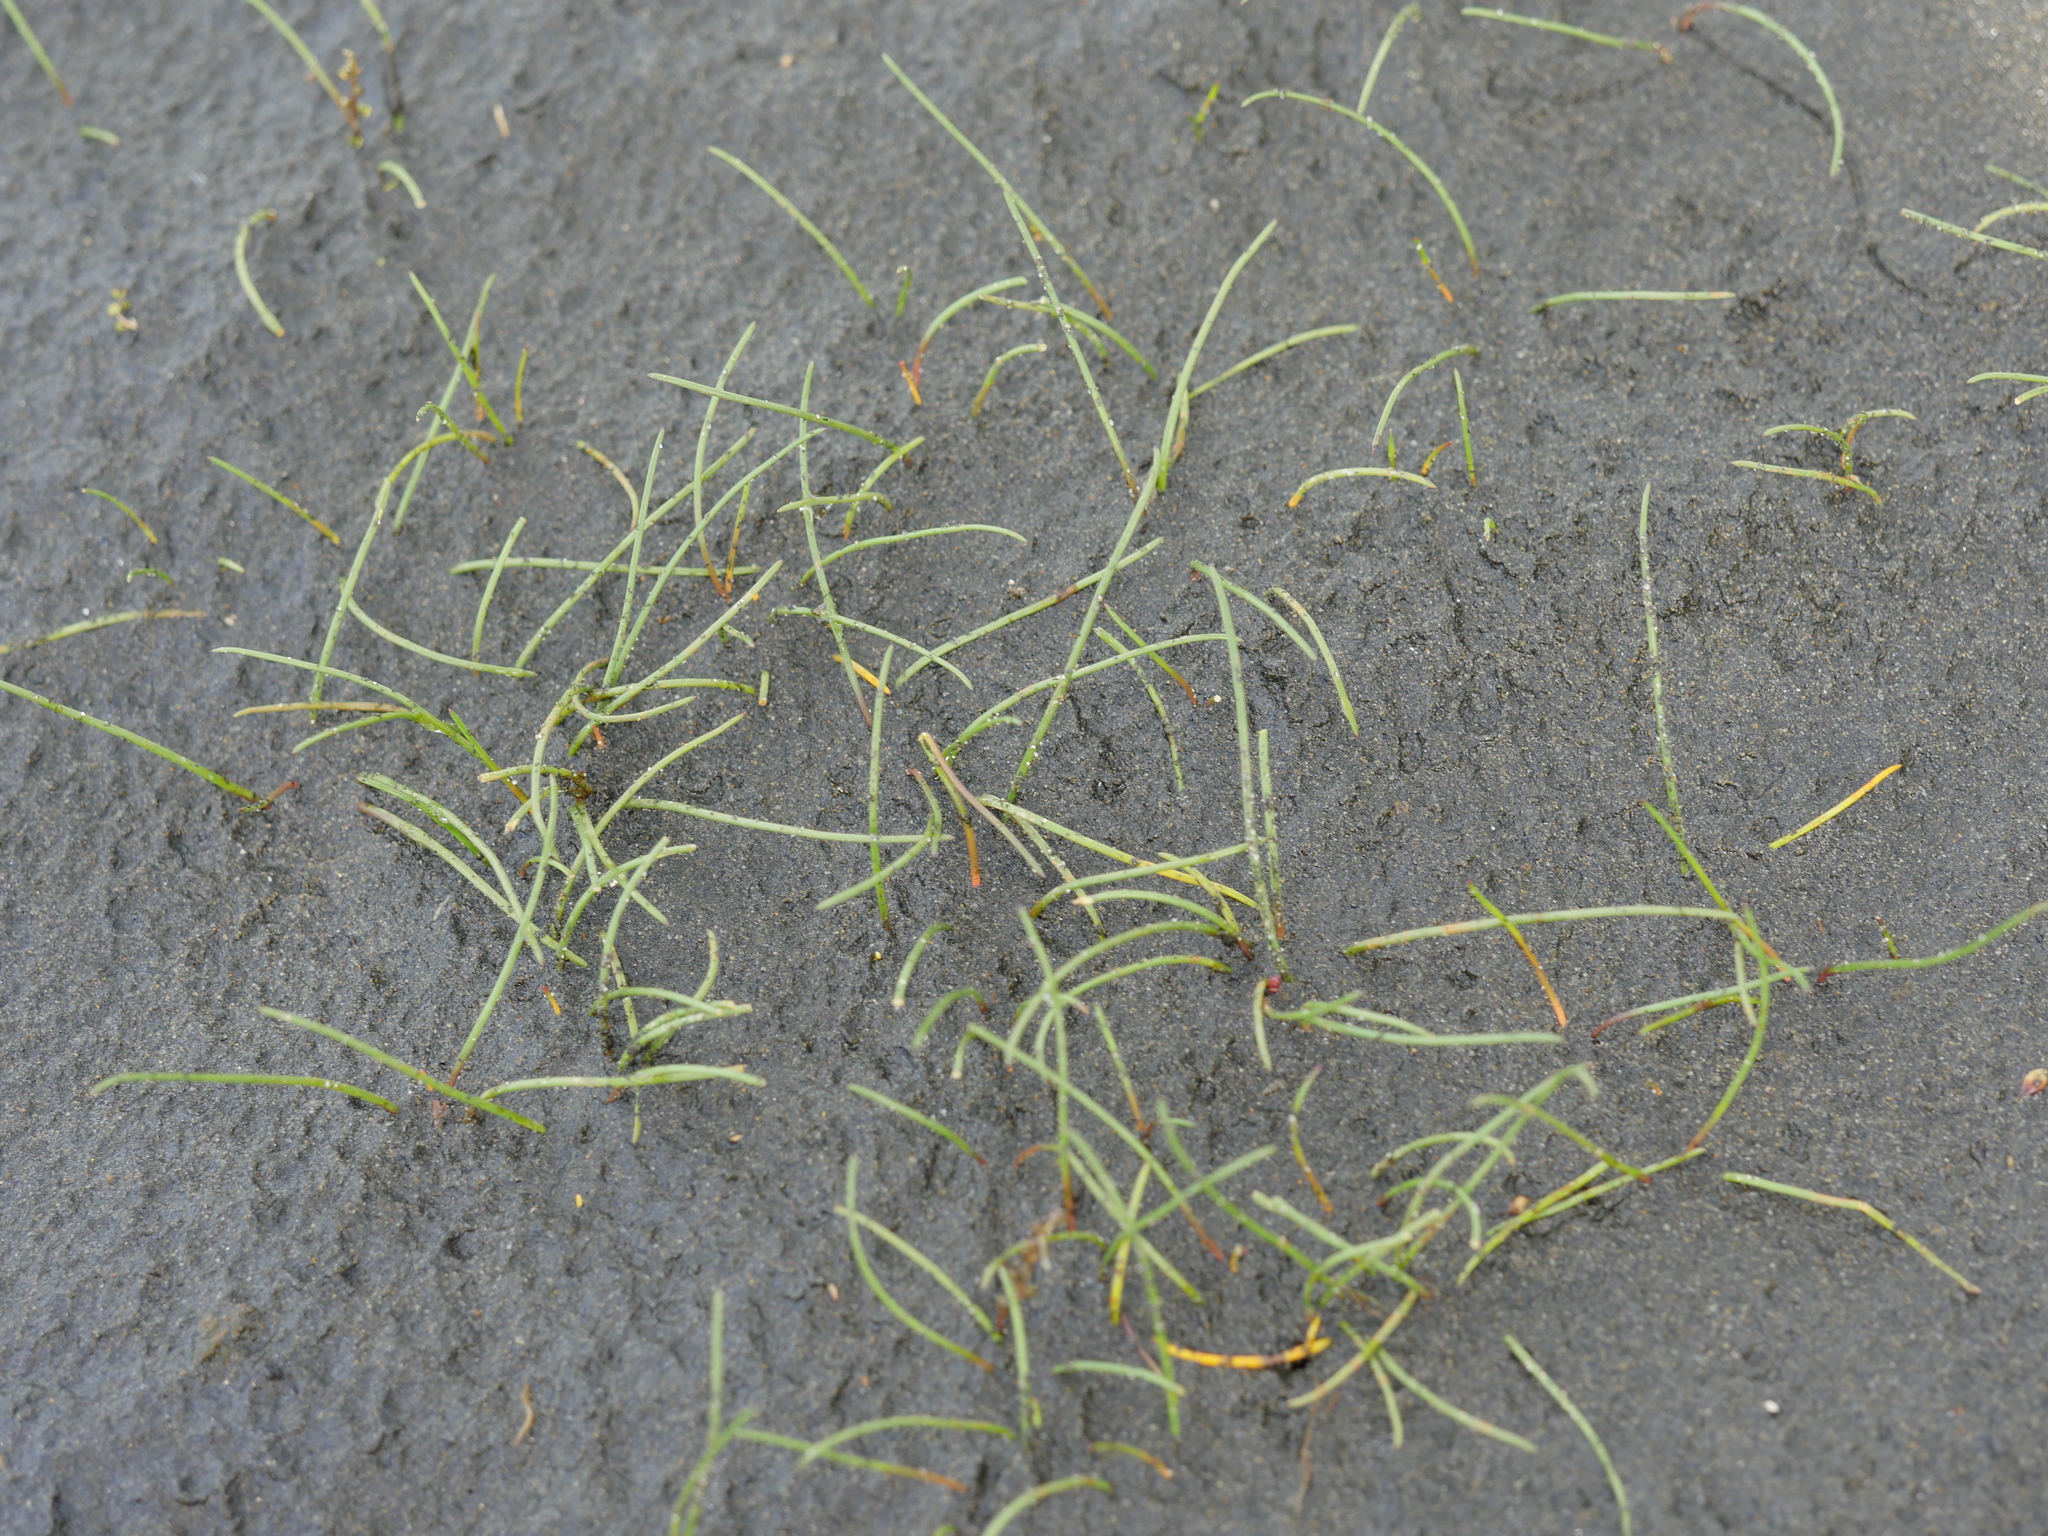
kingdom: Plantae
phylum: Tracheophyta
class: Liliopsida
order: Alismatales
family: Juncaginaceae
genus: Triglochin
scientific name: Triglochin striata
